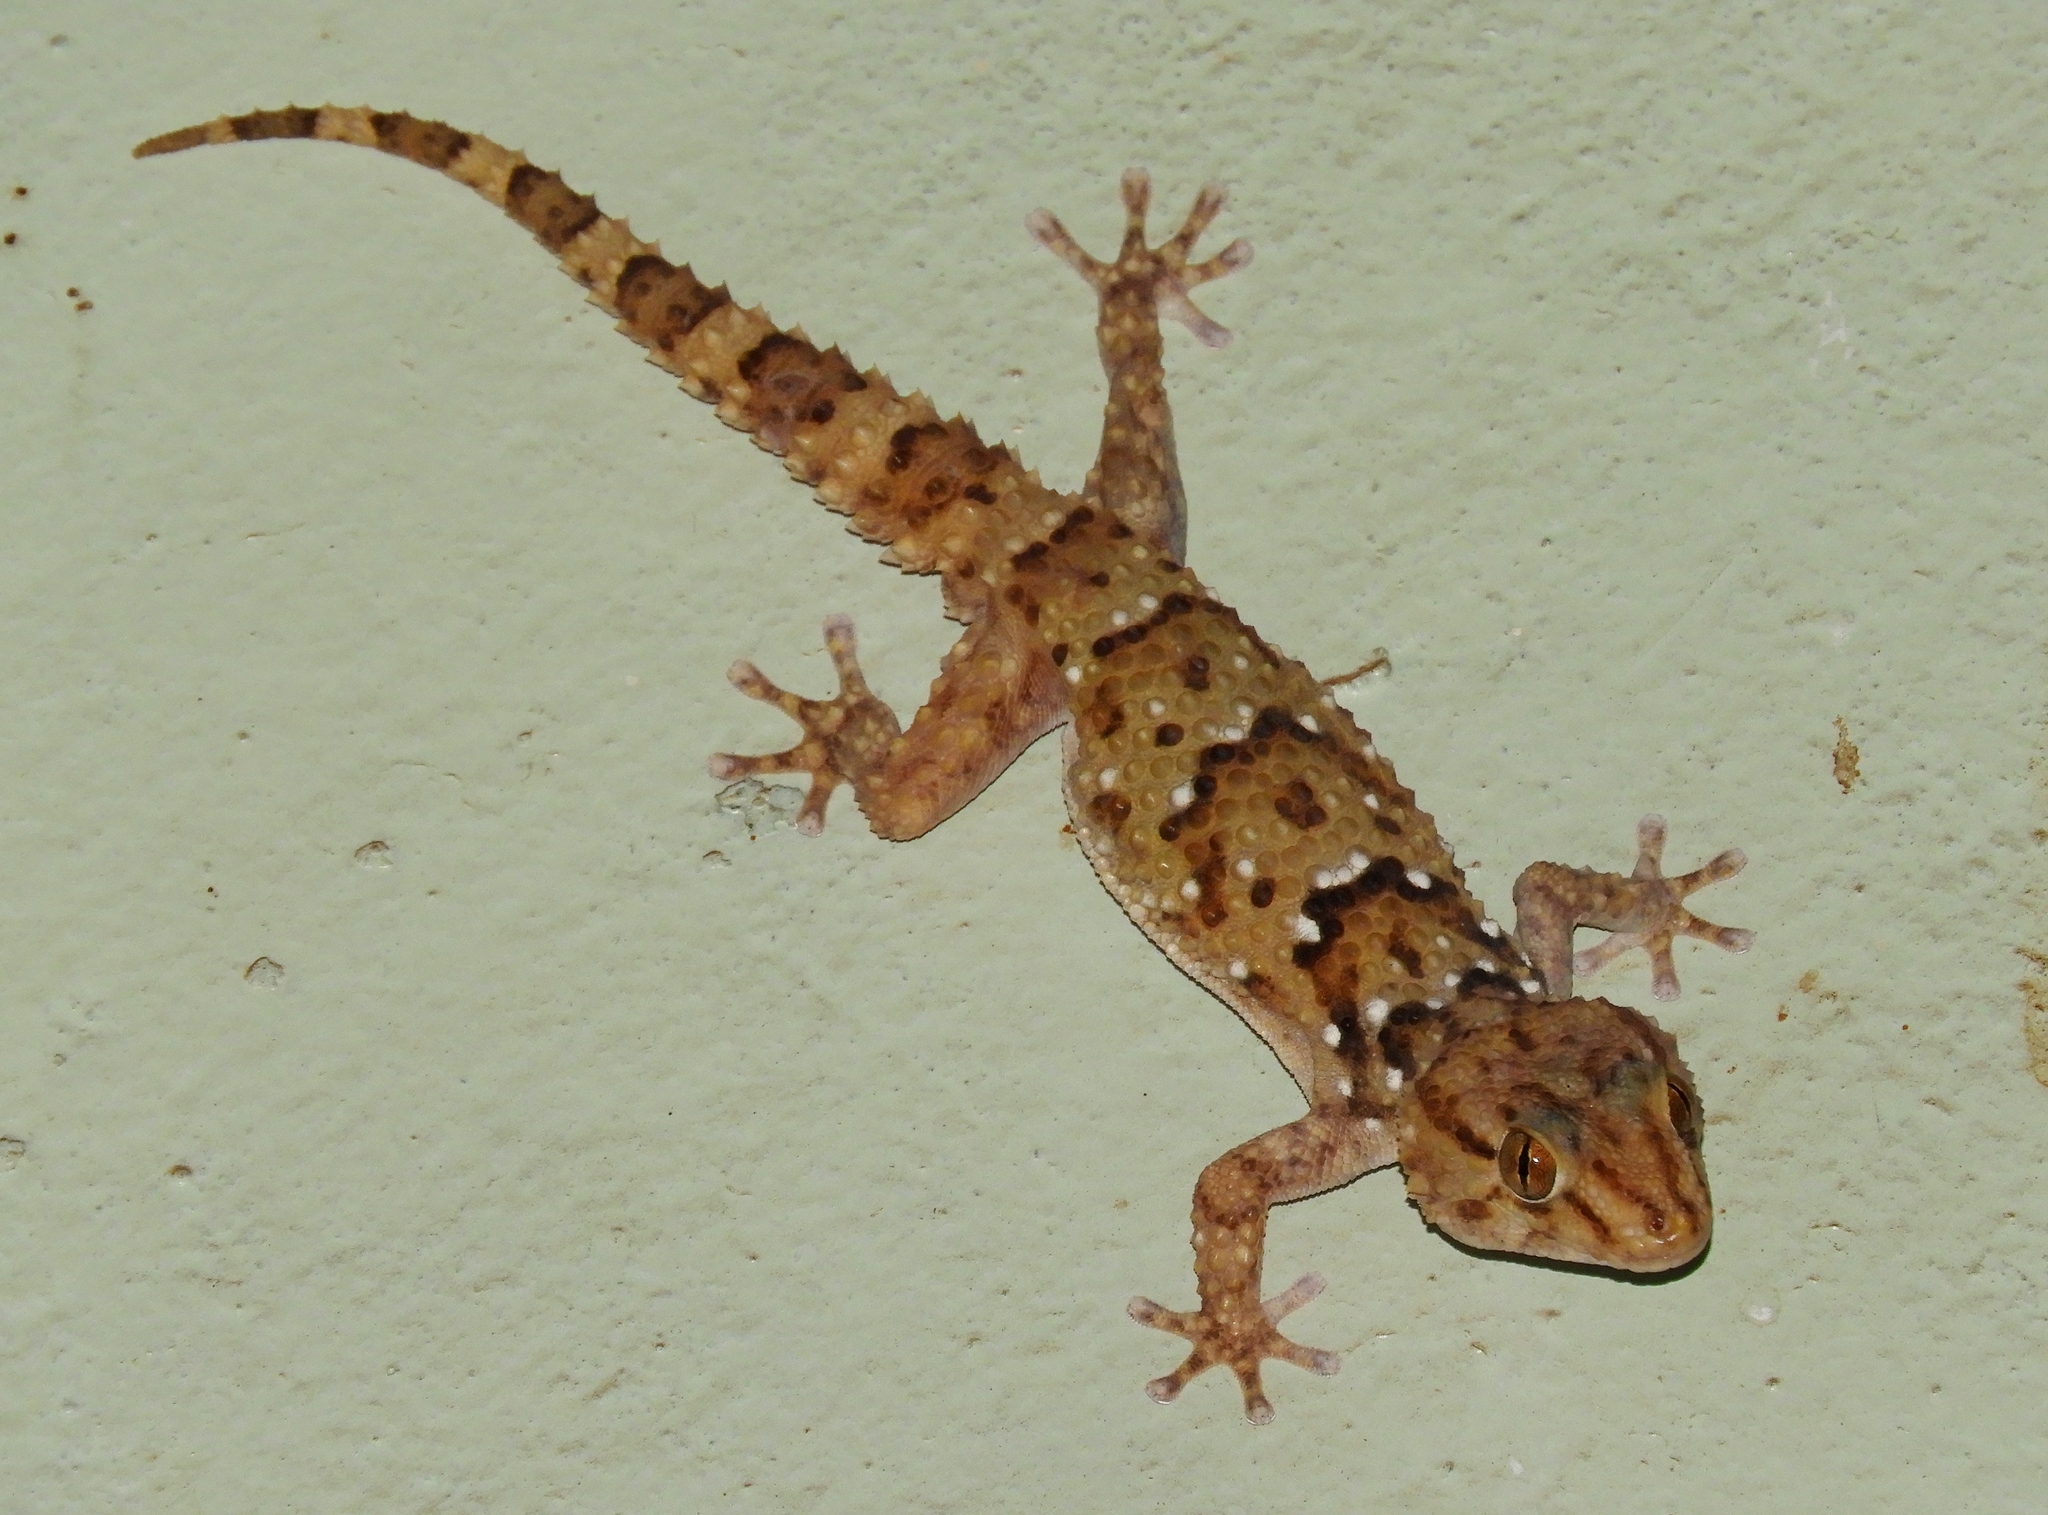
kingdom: Animalia
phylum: Chordata
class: Squamata
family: Gekkonidae
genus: Chondrodactylus
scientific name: Chondrodactylus bibronii
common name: Bibron's gecko
